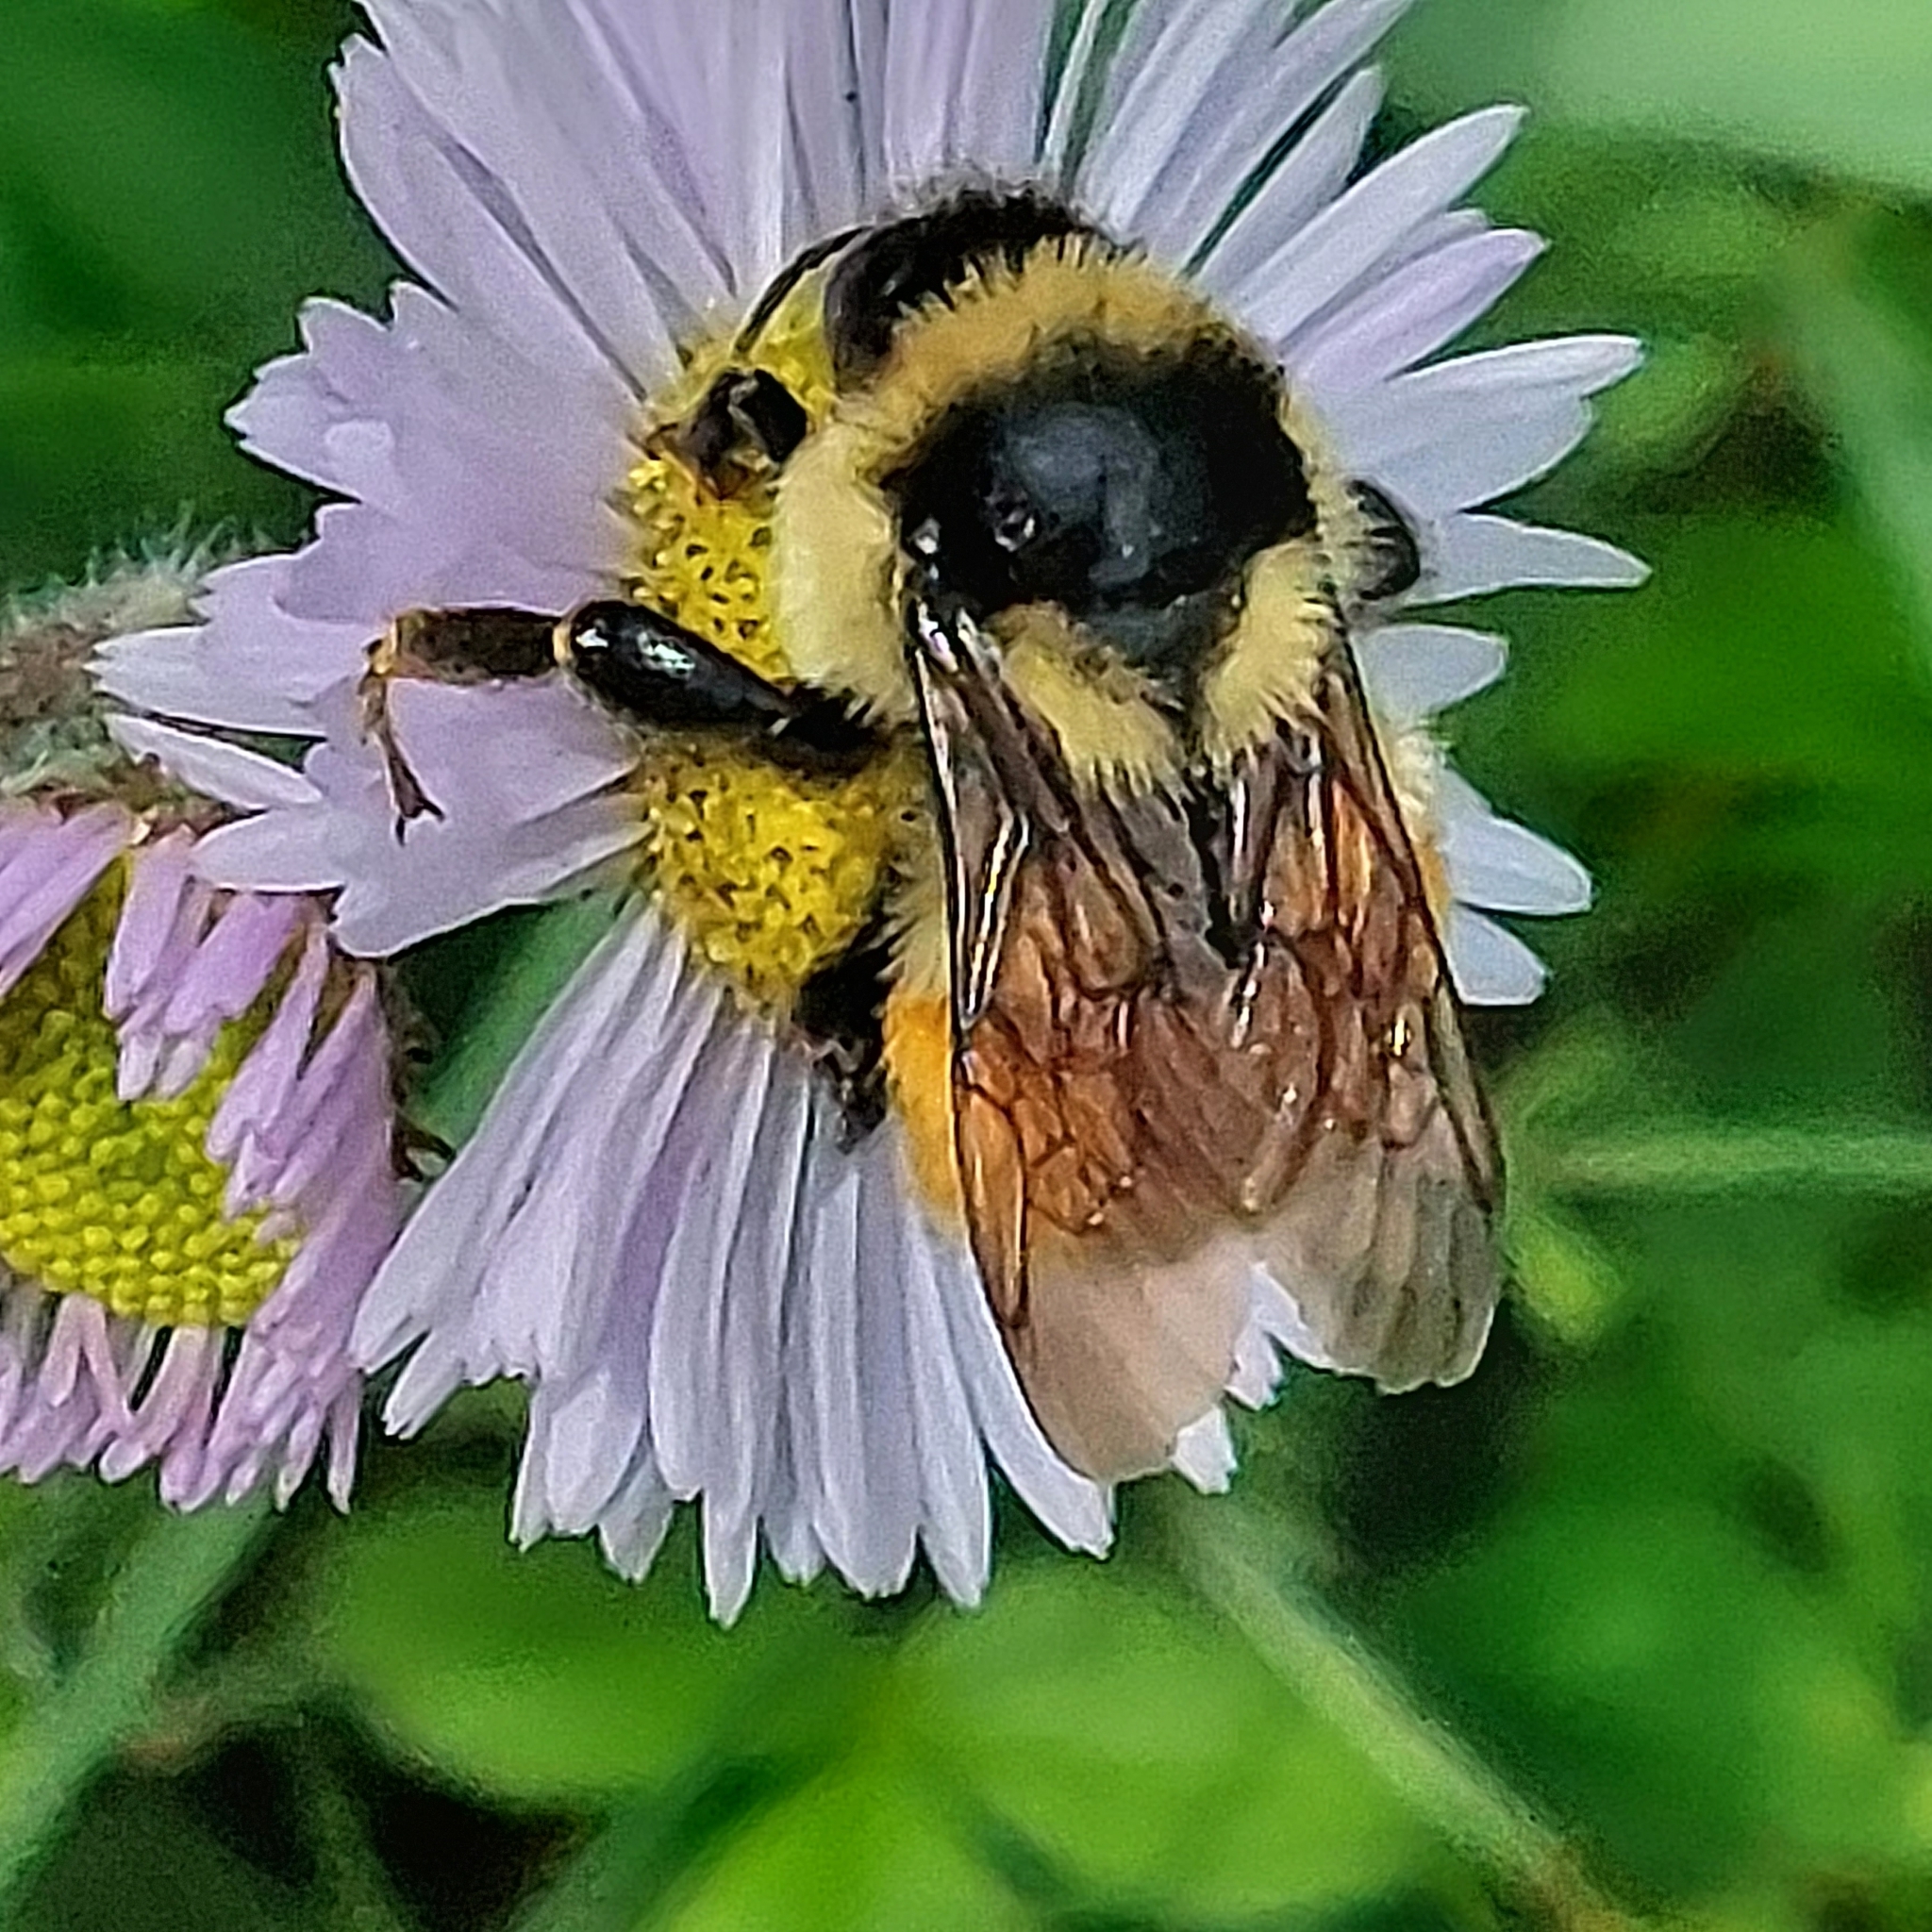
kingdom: Animalia
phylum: Arthropoda
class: Insecta
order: Hymenoptera
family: Apidae
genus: Bombus
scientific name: Bombus ternarius
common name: Tri-colored bumble bee
